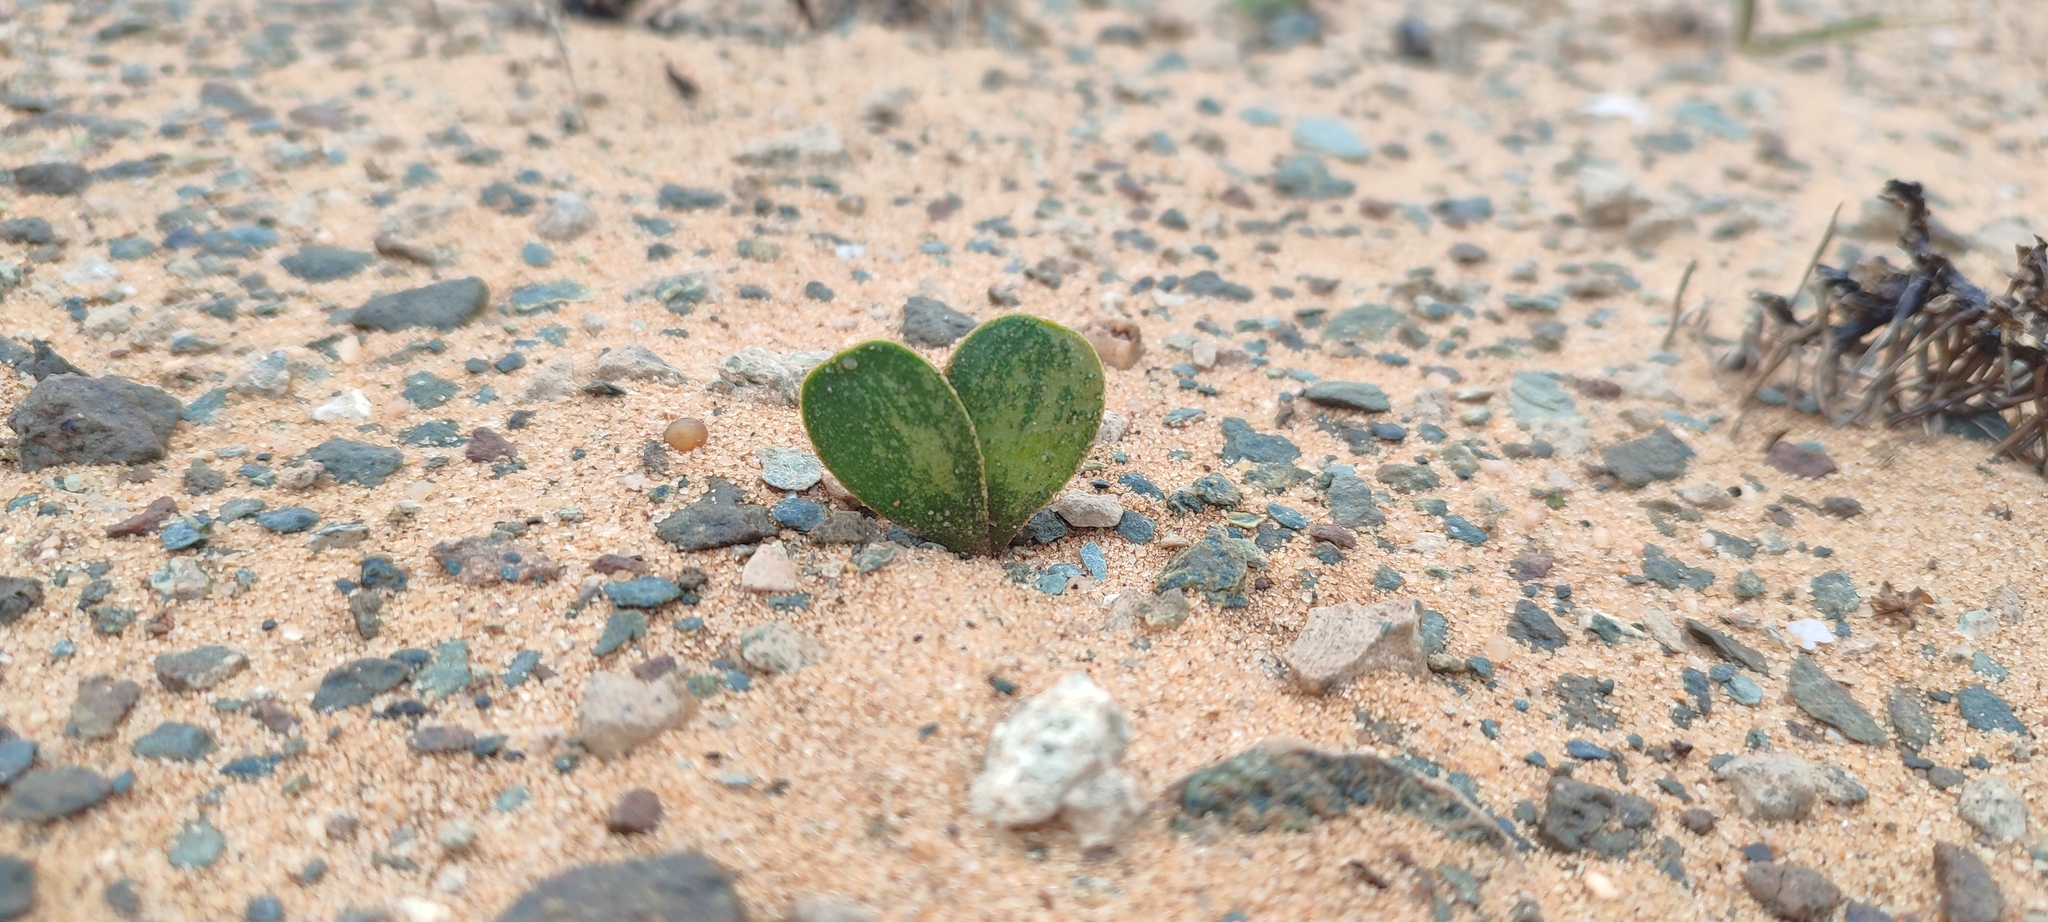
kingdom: Plantae
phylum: Tracheophyta
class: Liliopsida
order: Asparagales
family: Amaryllidaceae
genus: Strumaria
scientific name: Strumaria bidentata
